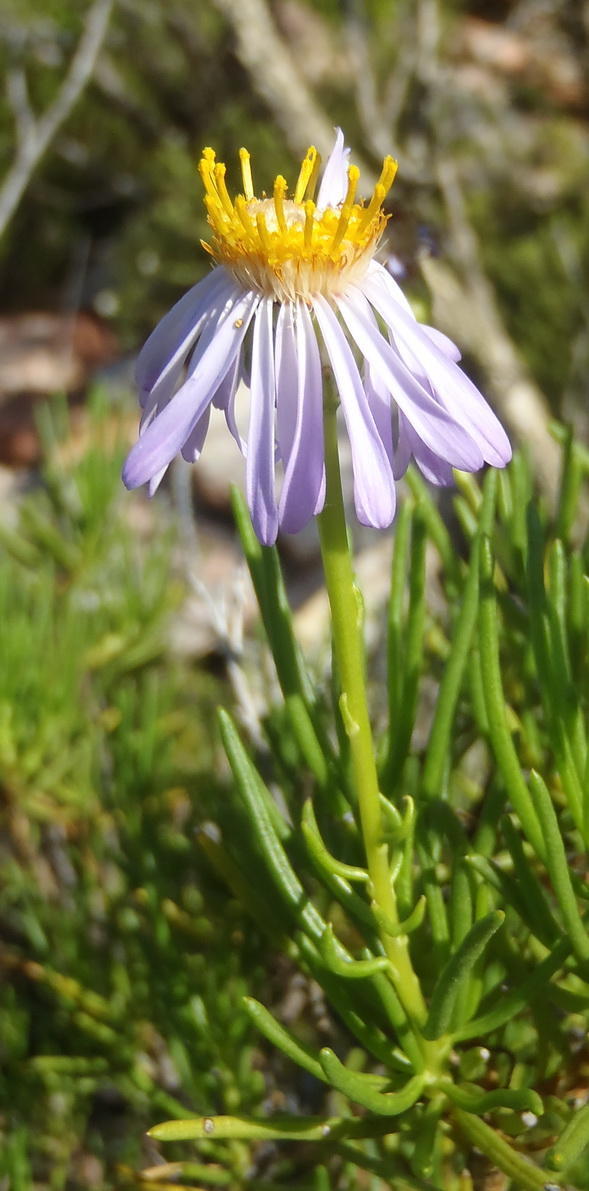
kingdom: Plantae
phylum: Tracheophyta
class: Magnoliopsida
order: Asterales
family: Asteraceae
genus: Felicia
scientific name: Felicia filifolia
